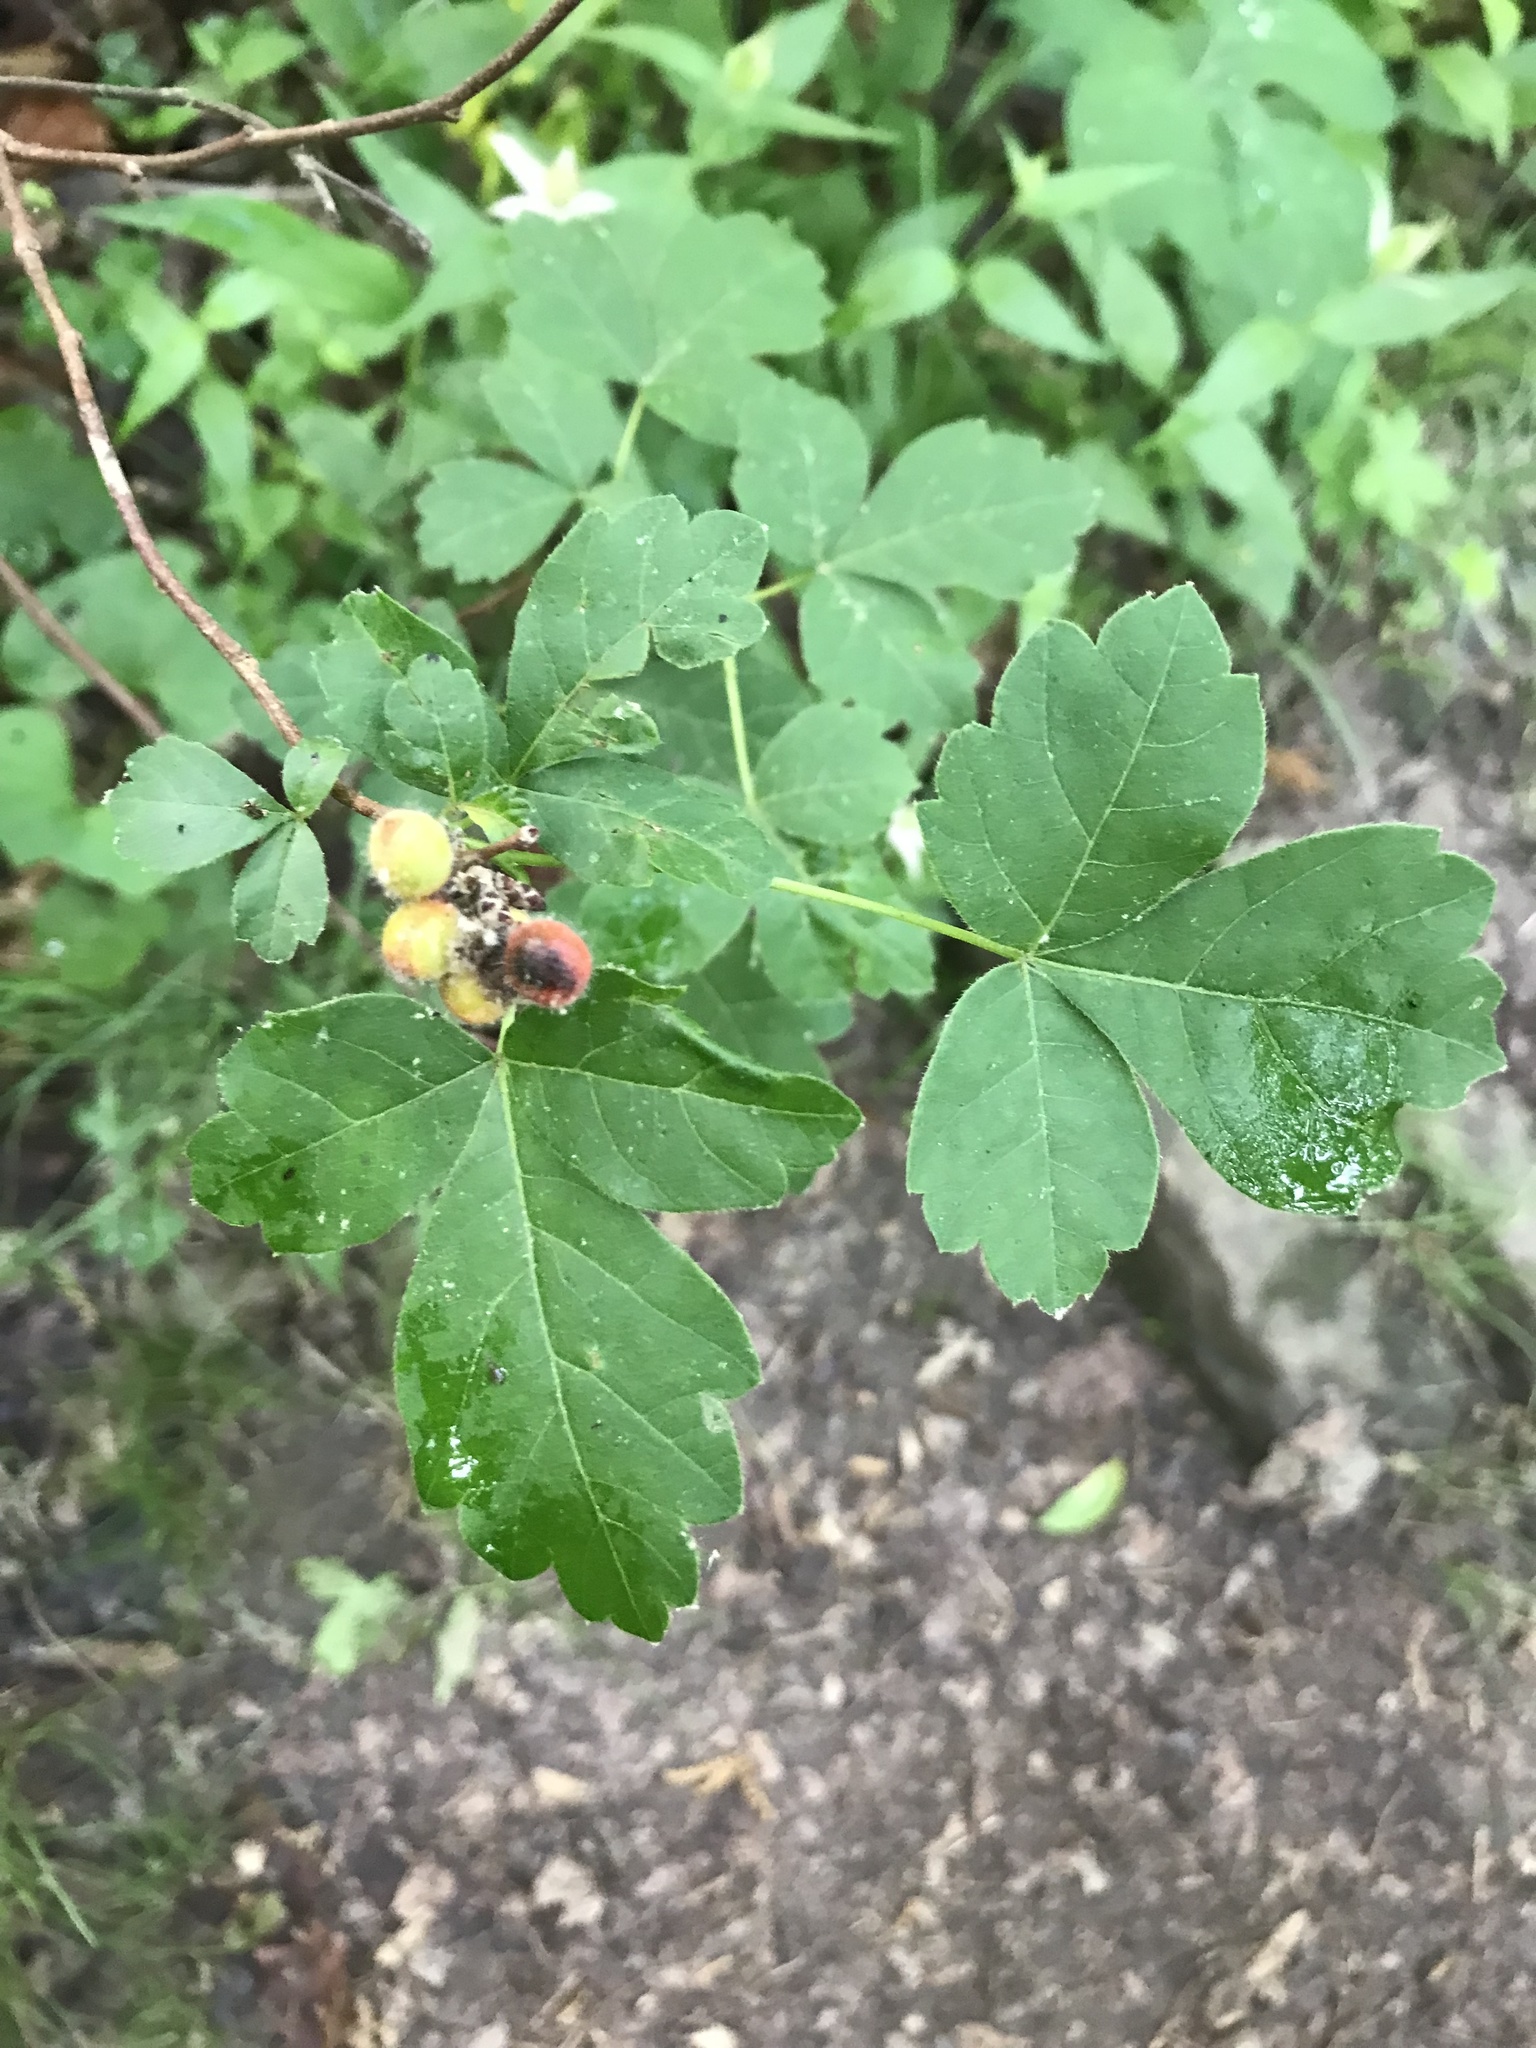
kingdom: Plantae
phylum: Tracheophyta
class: Magnoliopsida
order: Sapindales
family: Anacardiaceae
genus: Rhus
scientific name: Rhus aromatica
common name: Aromatic sumac
